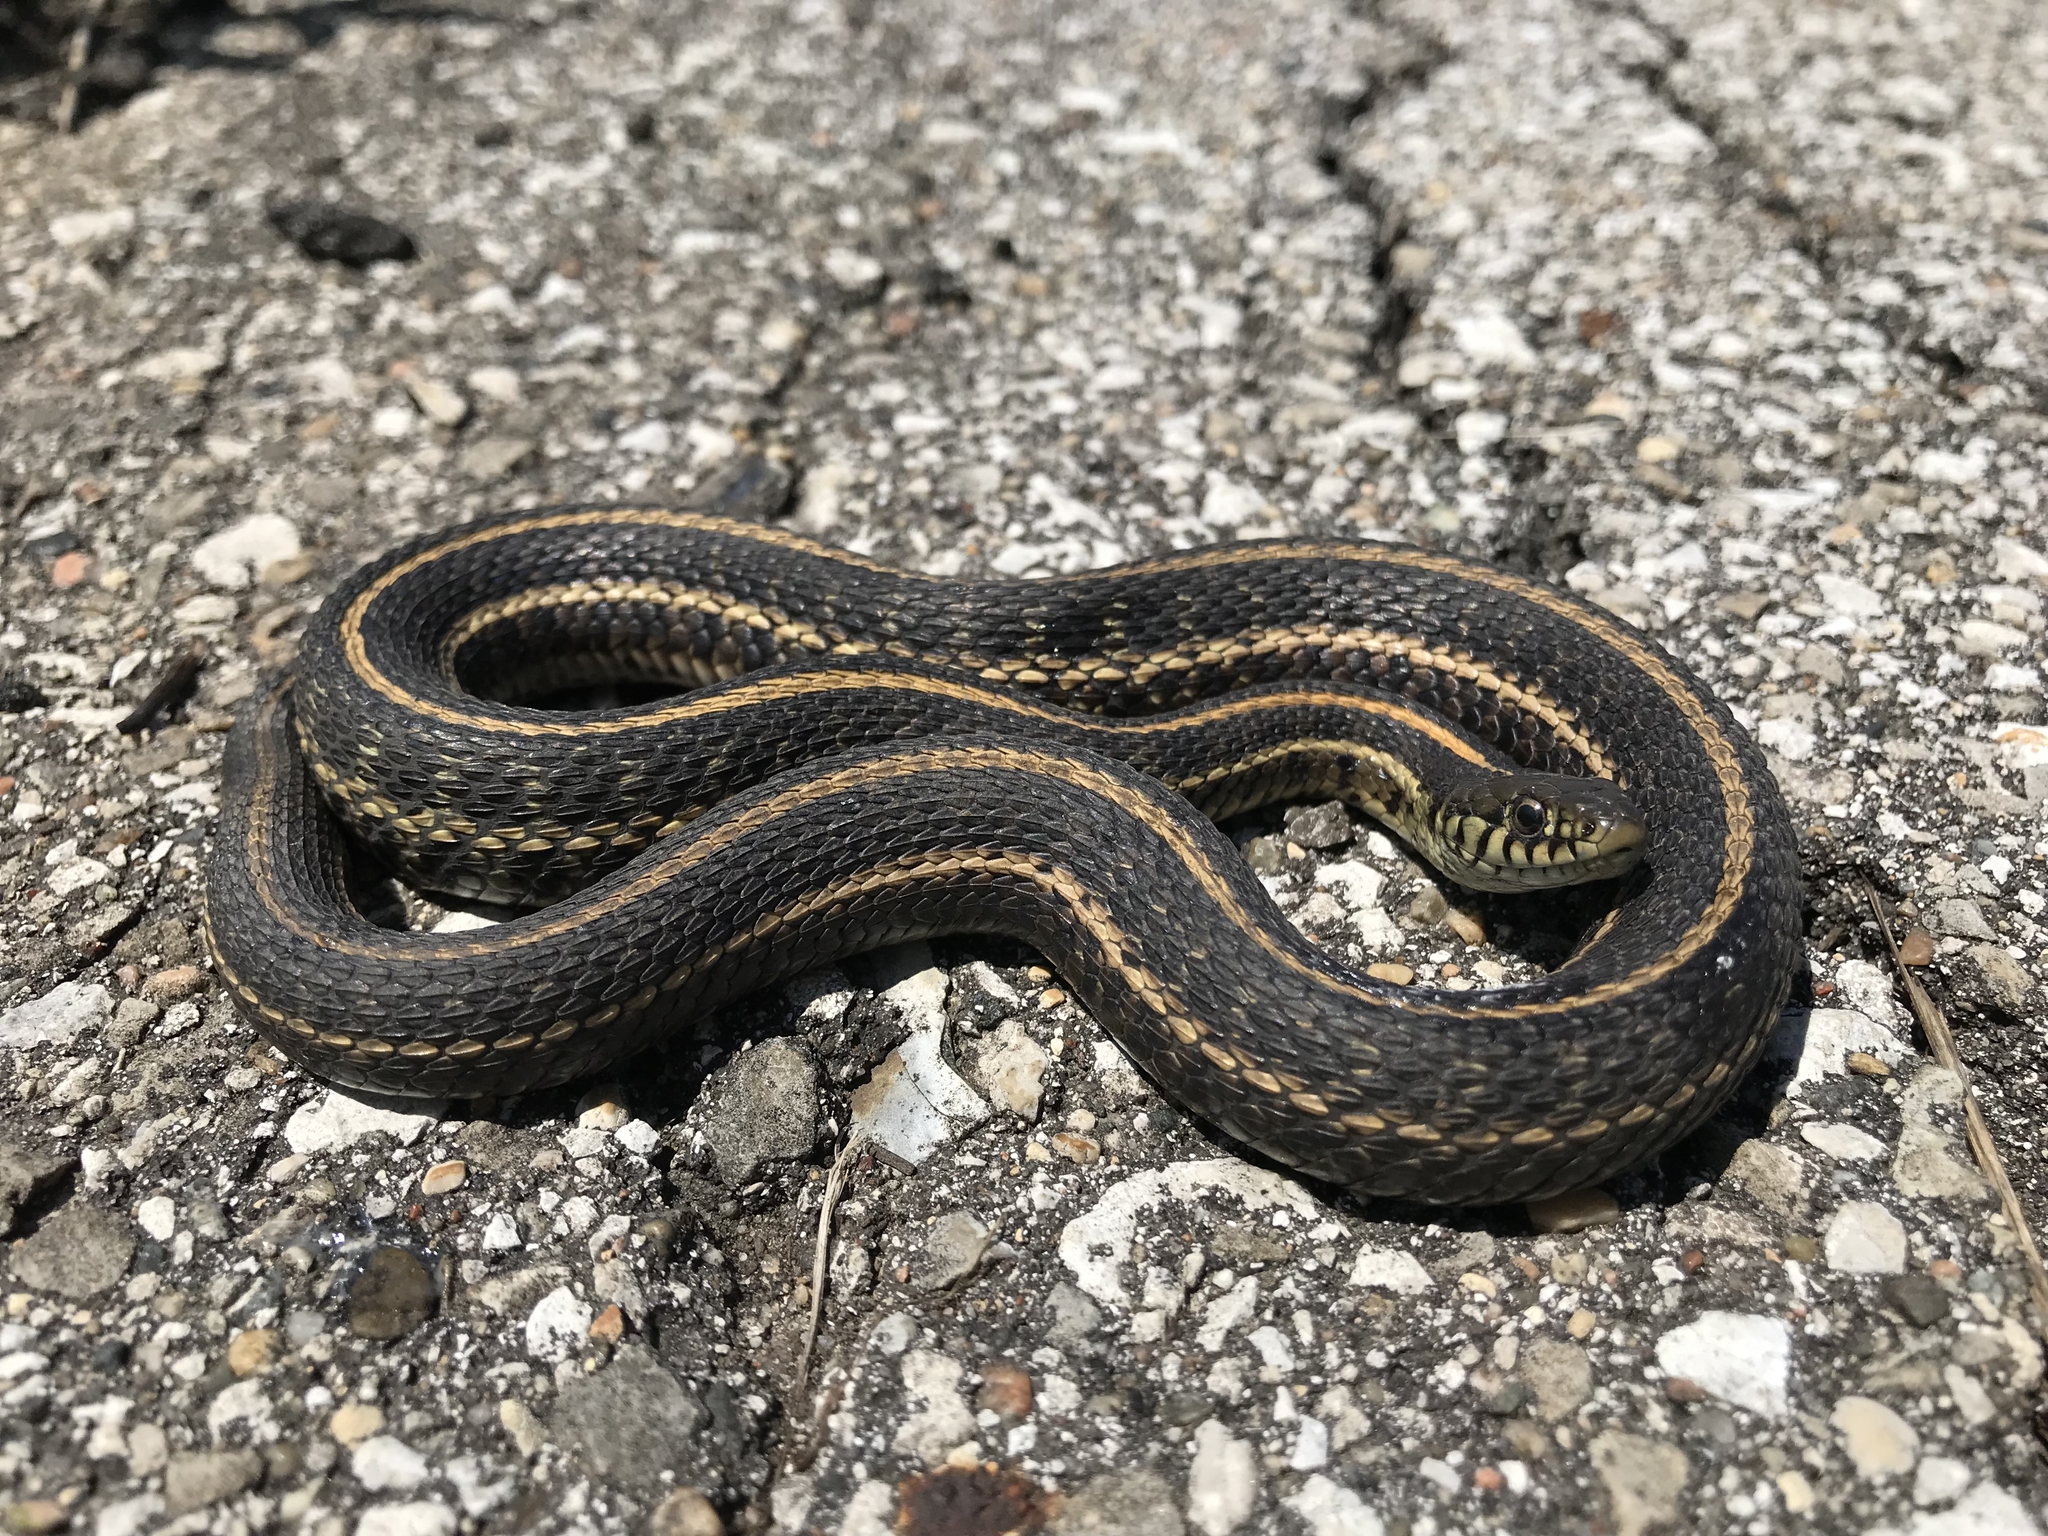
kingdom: Animalia
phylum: Chordata
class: Squamata
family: Colubridae
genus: Thamnophis
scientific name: Thamnophis radix
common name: Plains garter snake
